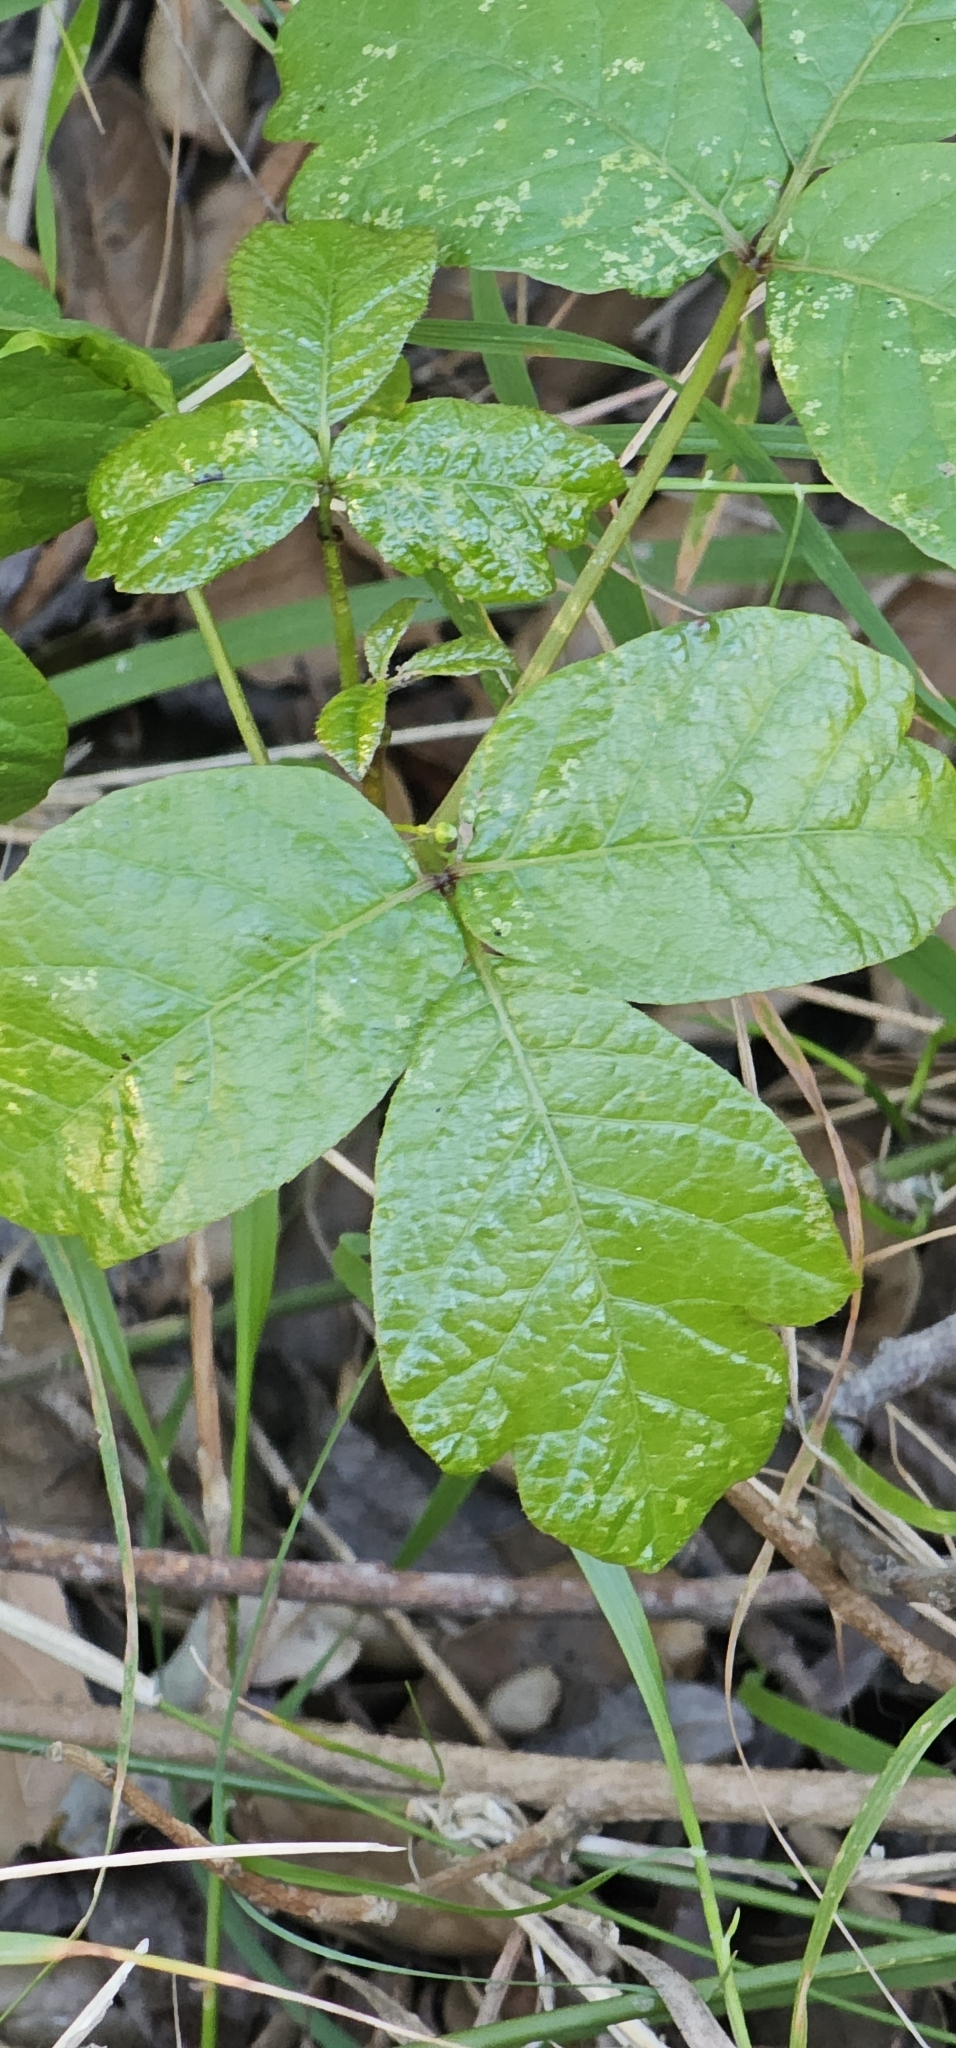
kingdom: Plantae
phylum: Tracheophyta
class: Magnoliopsida
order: Sapindales
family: Anacardiaceae
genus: Toxicodendron
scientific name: Toxicodendron diversilobum
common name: Pacific poison-oak
